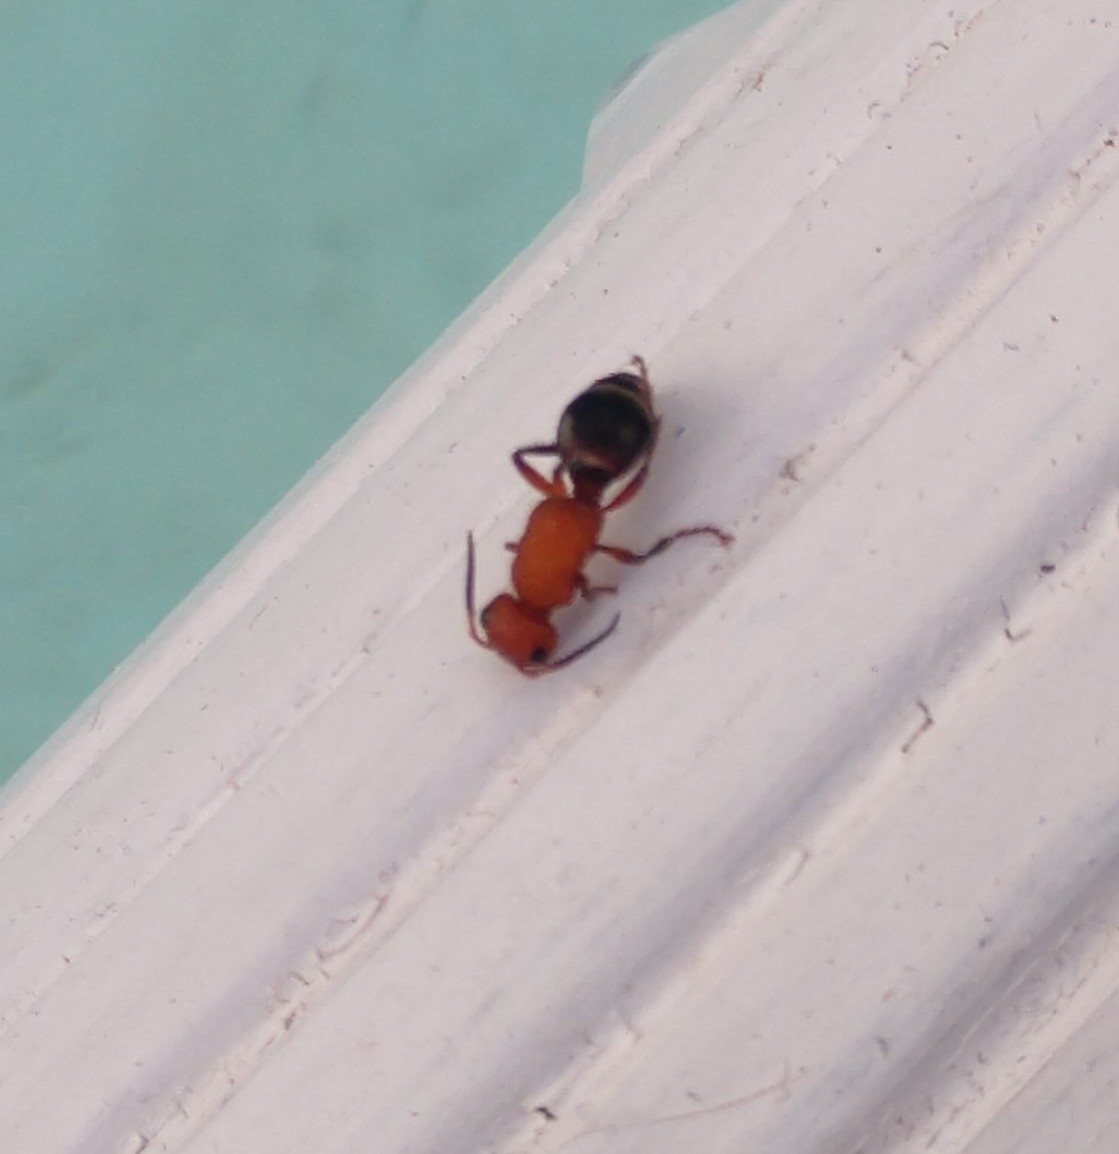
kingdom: Animalia
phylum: Arthropoda
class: Insecta
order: Hymenoptera
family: Mutillidae
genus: Timulla
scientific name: Timulla
